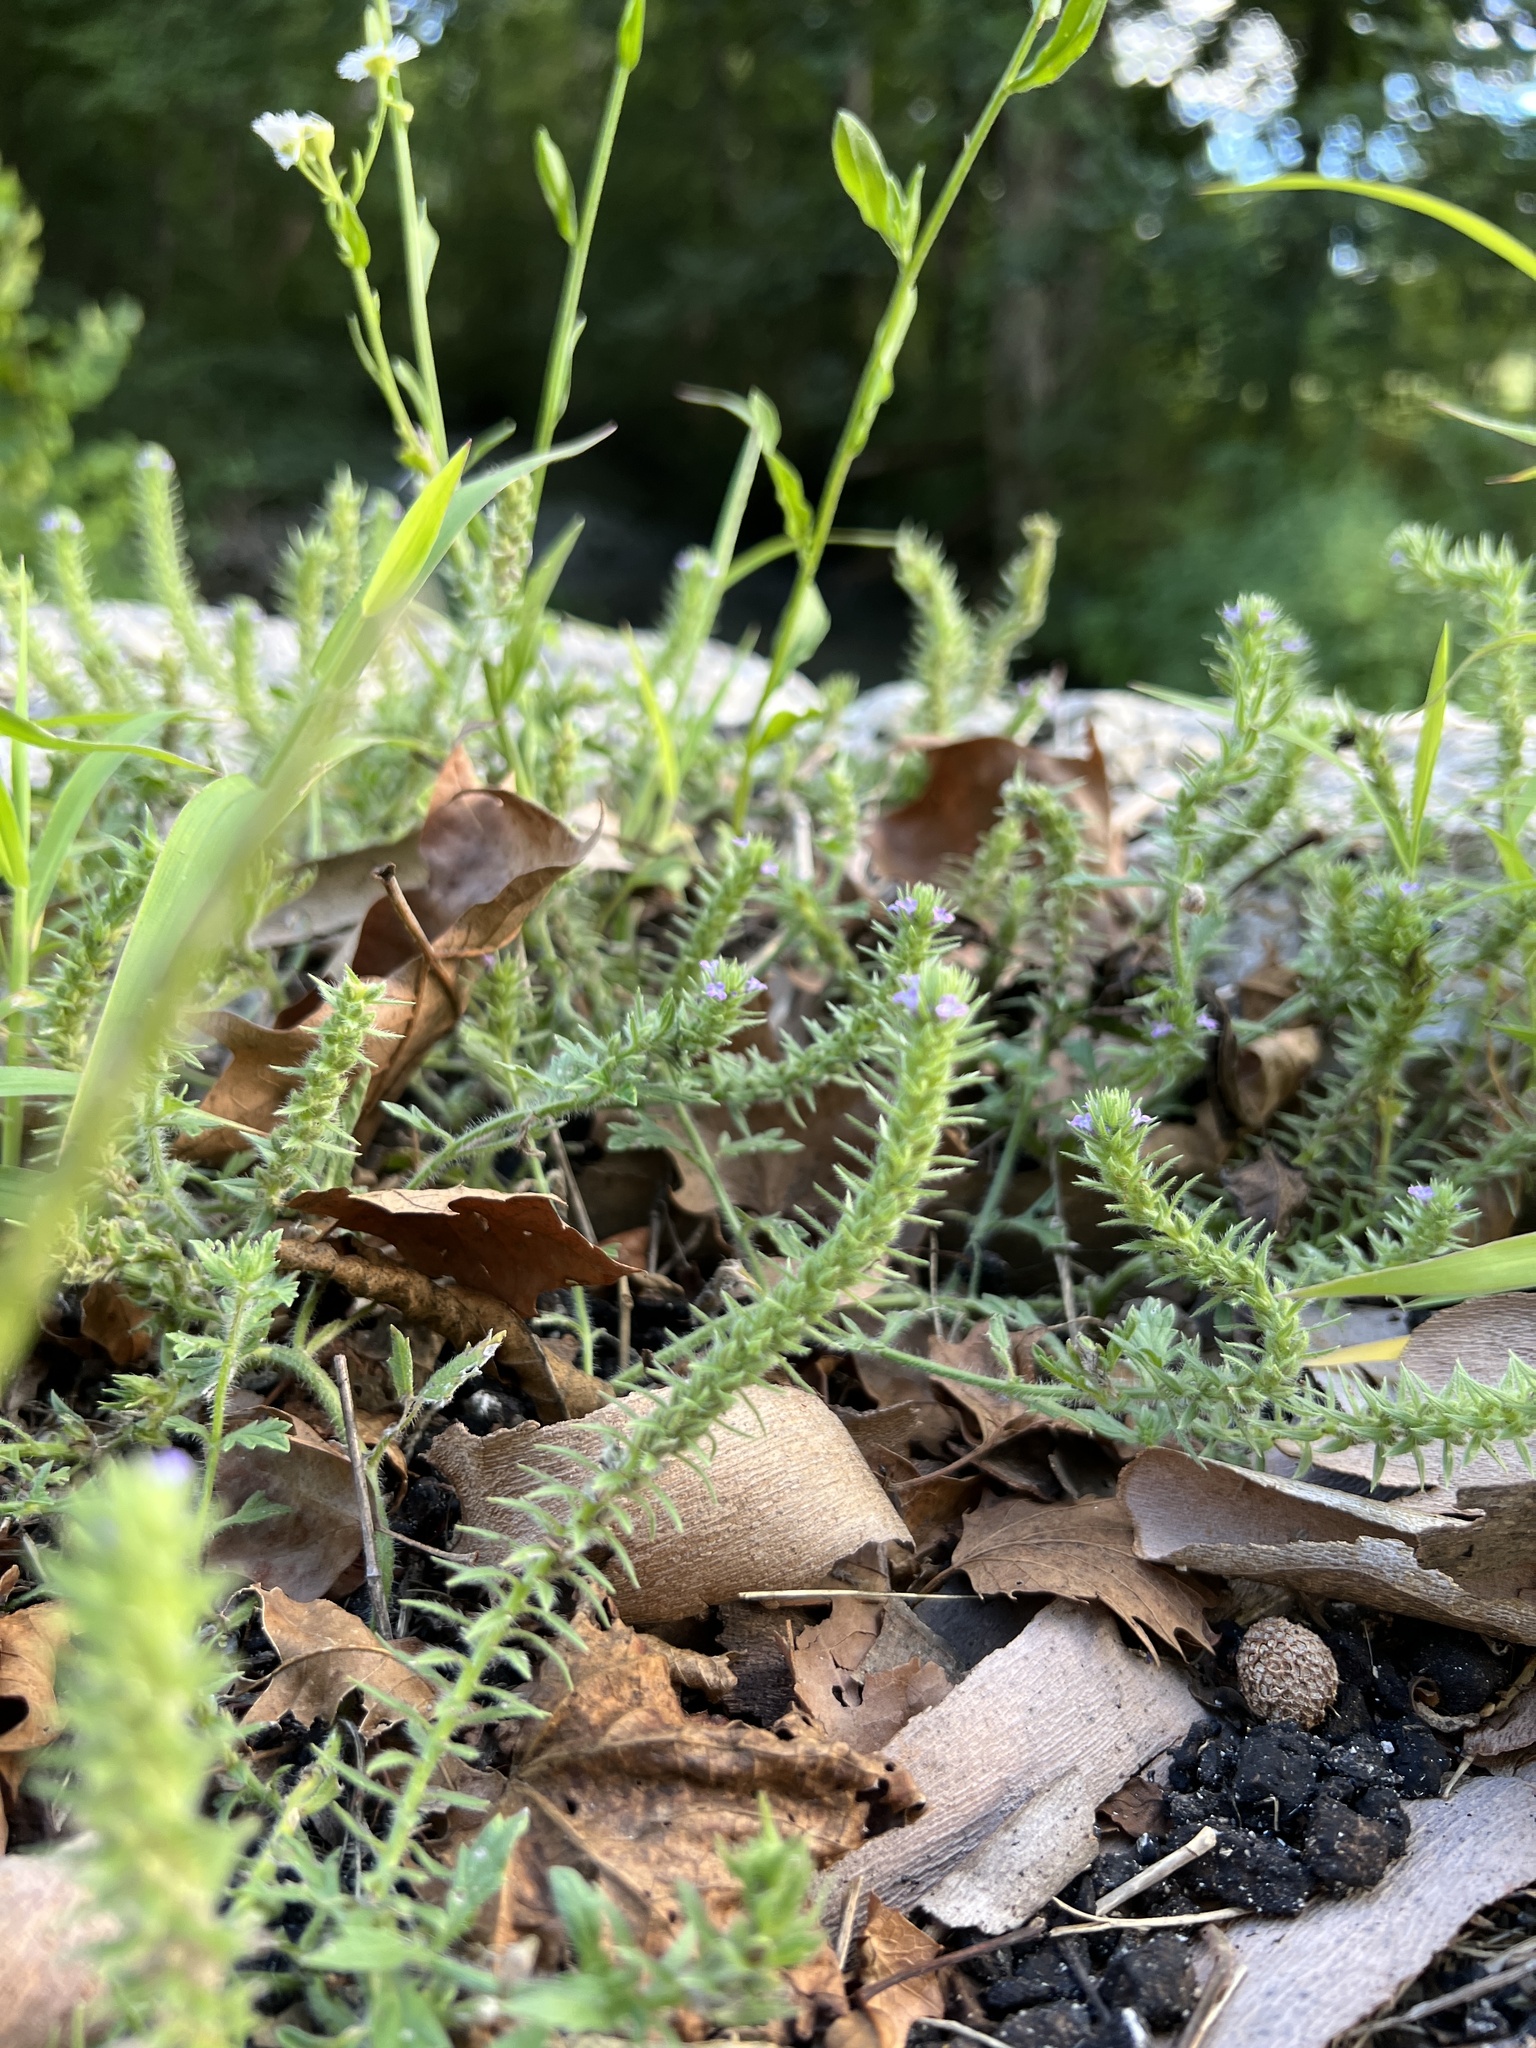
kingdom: Plantae
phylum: Tracheophyta
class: Magnoliopsida
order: Lamiales
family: Verbenaceae
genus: Verbena
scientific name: Verbena bracteata
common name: Bracted vervain
